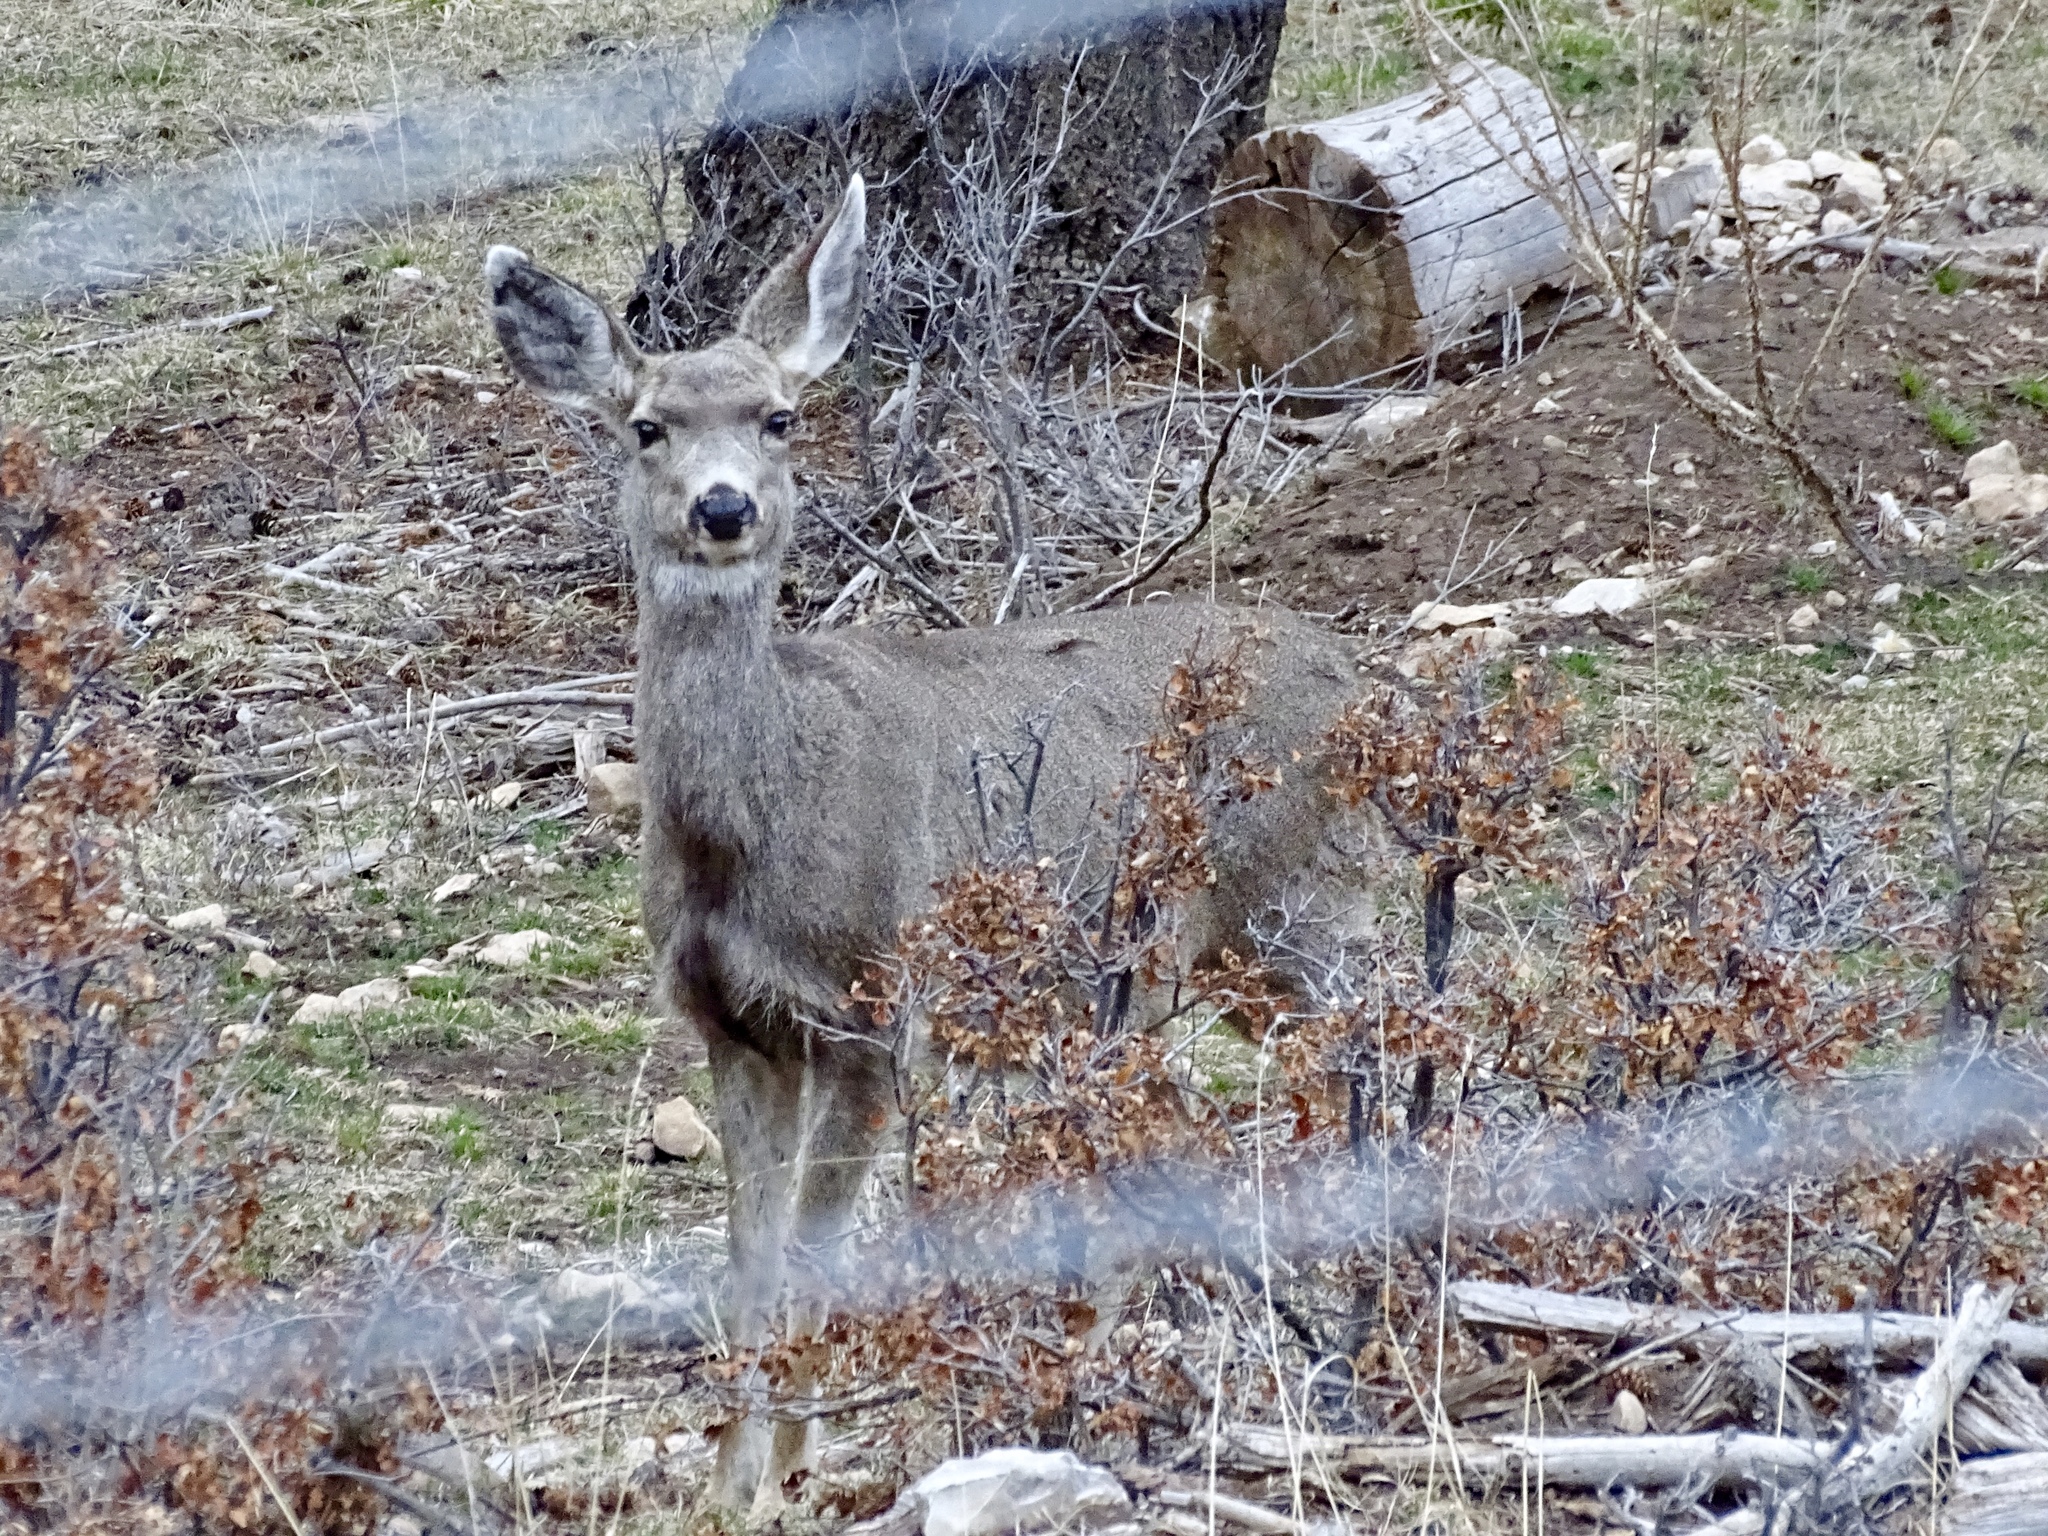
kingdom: Animalia
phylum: Chordata
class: Mammalia
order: Artiodactyla
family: Cervidae
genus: Odocoileus
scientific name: Odocoileus hemionus
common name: Mule deer
